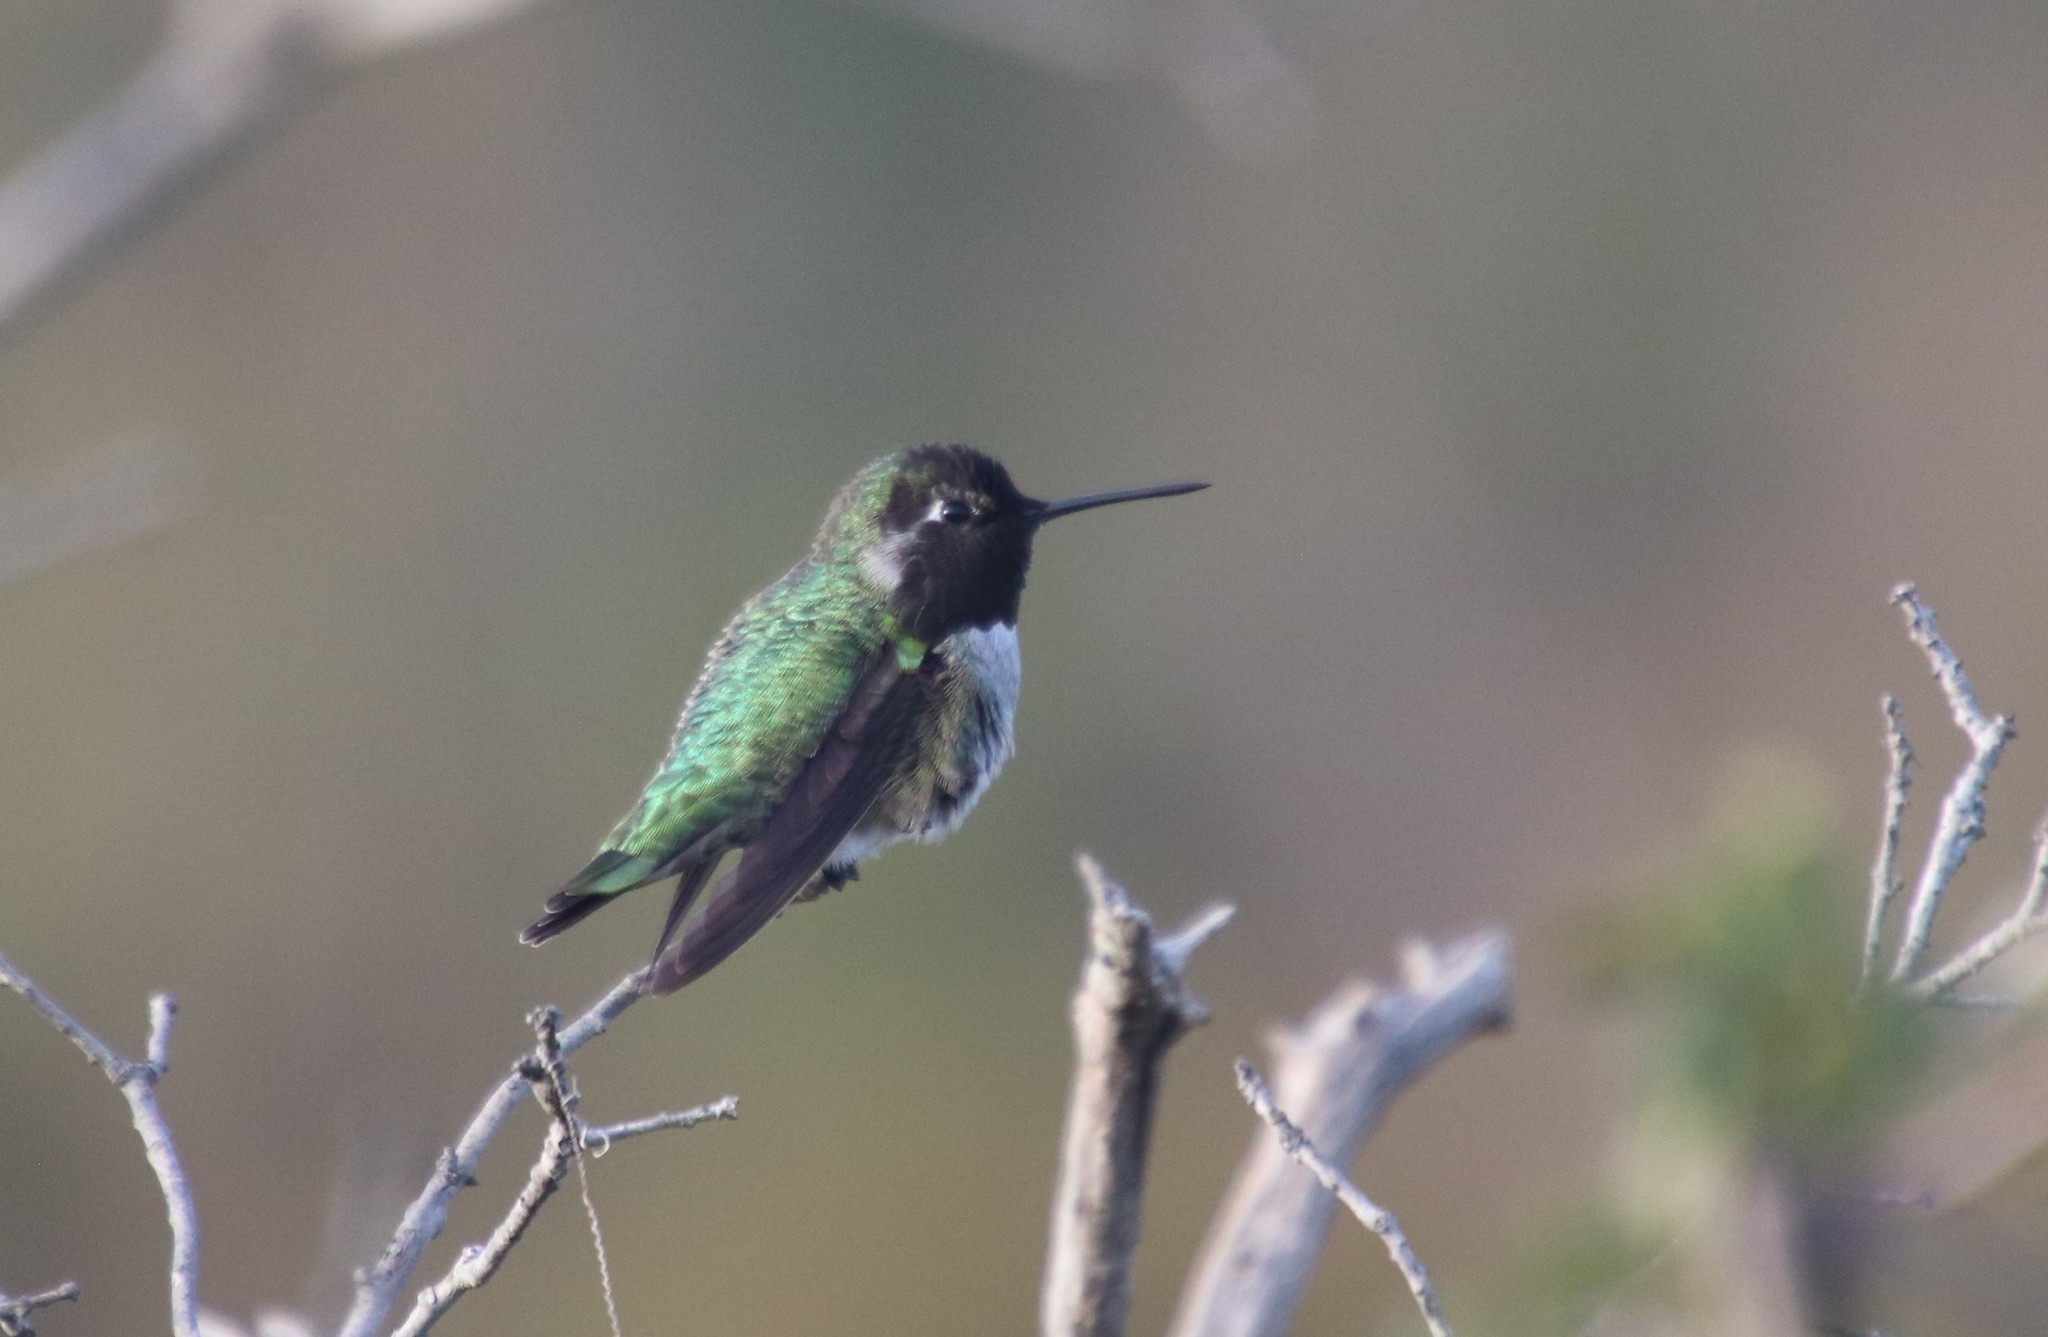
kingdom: Animalia
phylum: Chordata
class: Aves
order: Apodiformes
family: Trochilidae
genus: Calypte
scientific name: Calypte anna
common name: Anna's hummingbird
